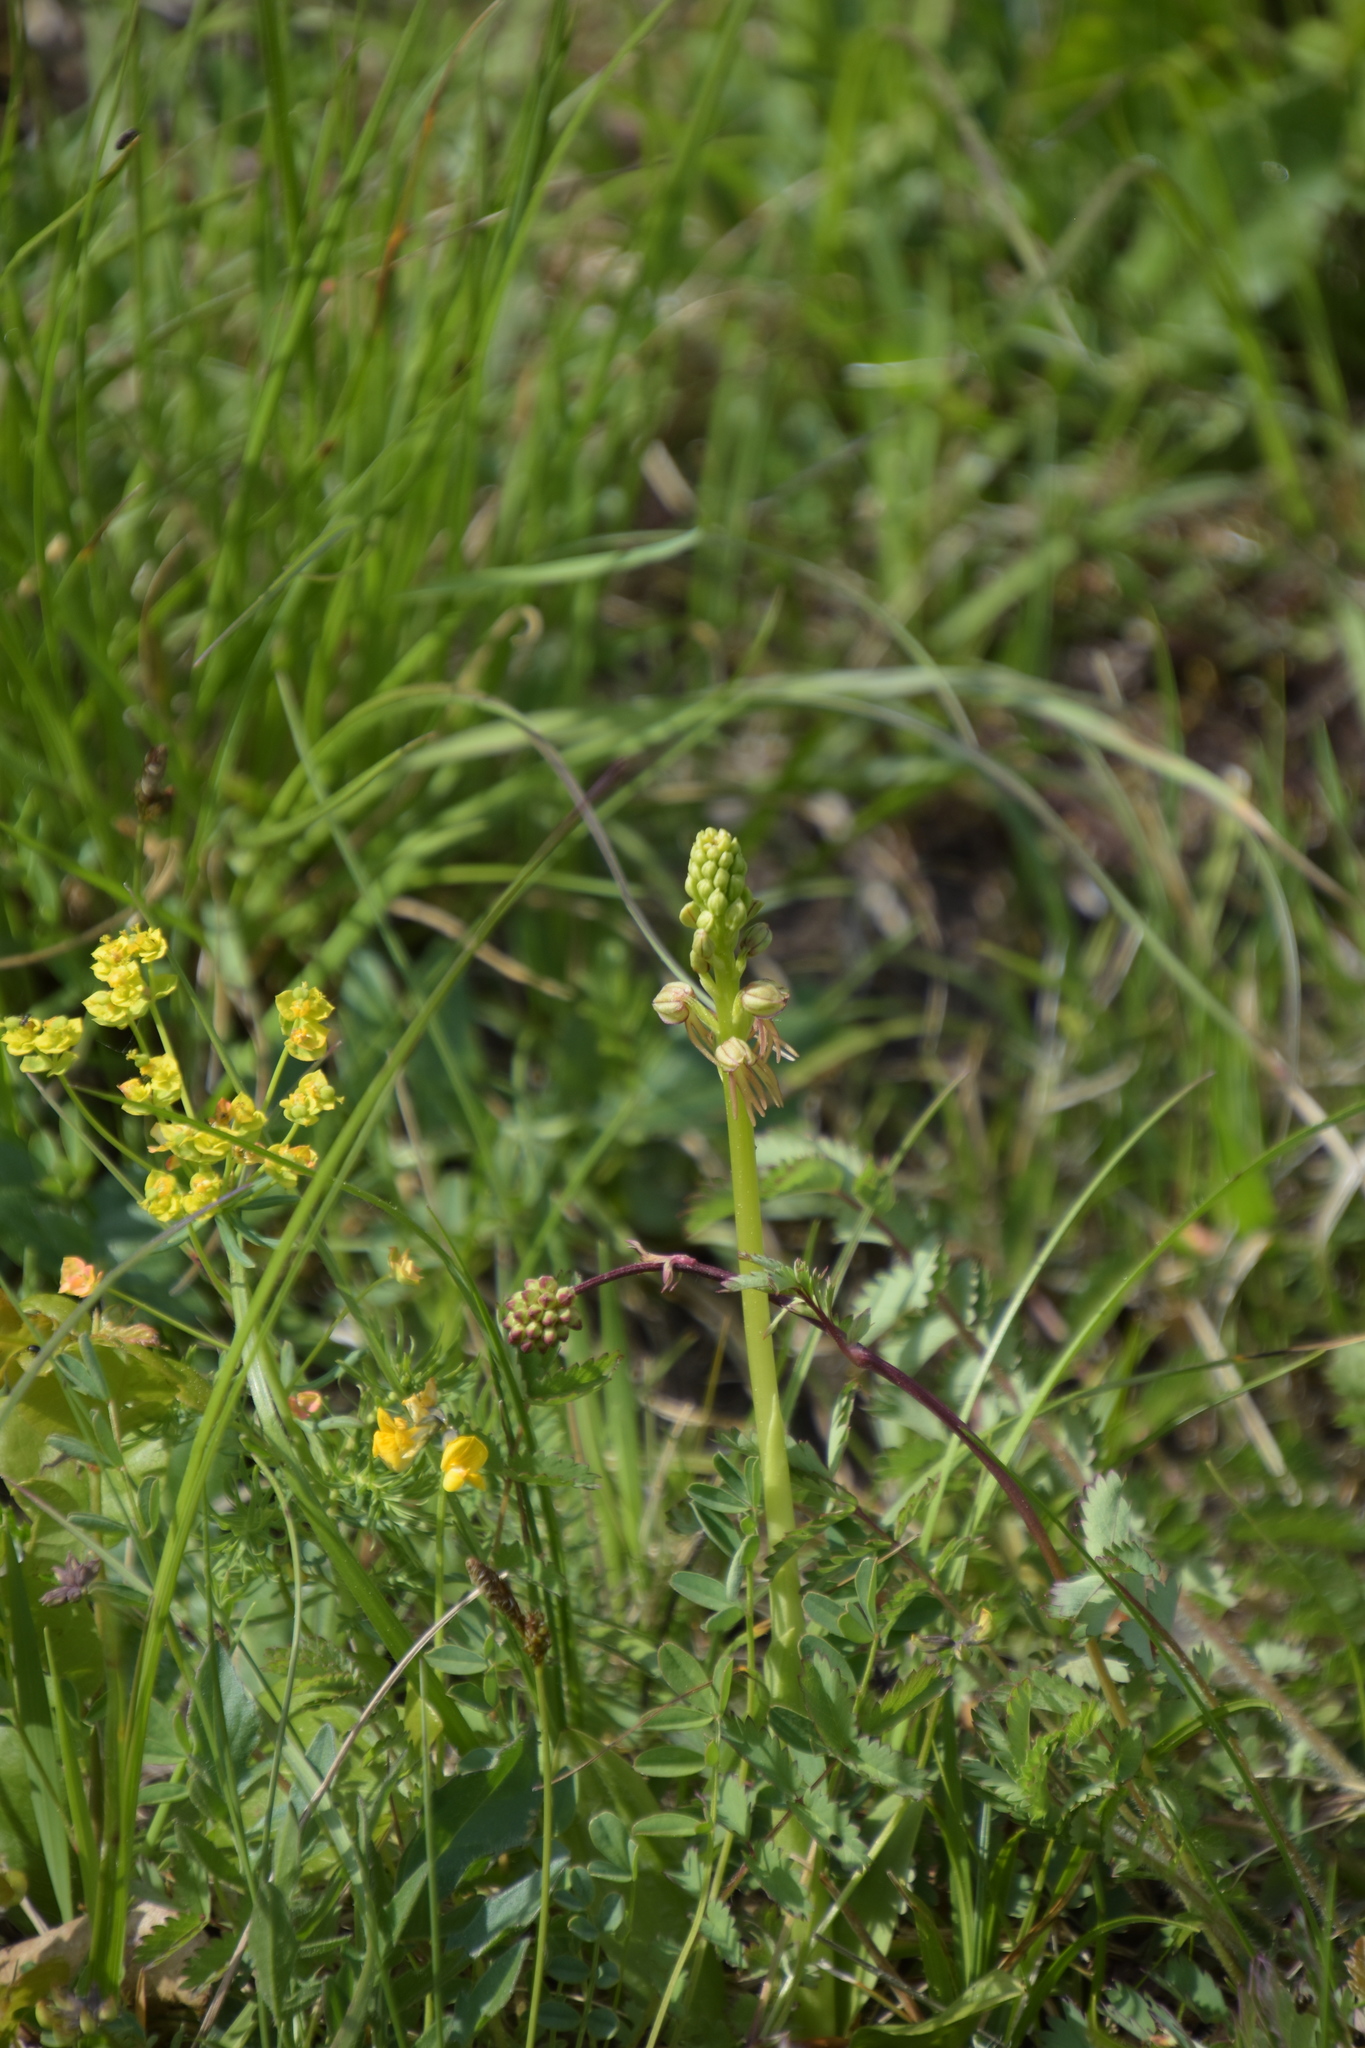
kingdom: Plantae
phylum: Tracheophyta
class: Liliopsida
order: Asparagales
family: Orchidaceae
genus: Orchis
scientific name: Orchis anthropophora
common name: Man orchid
